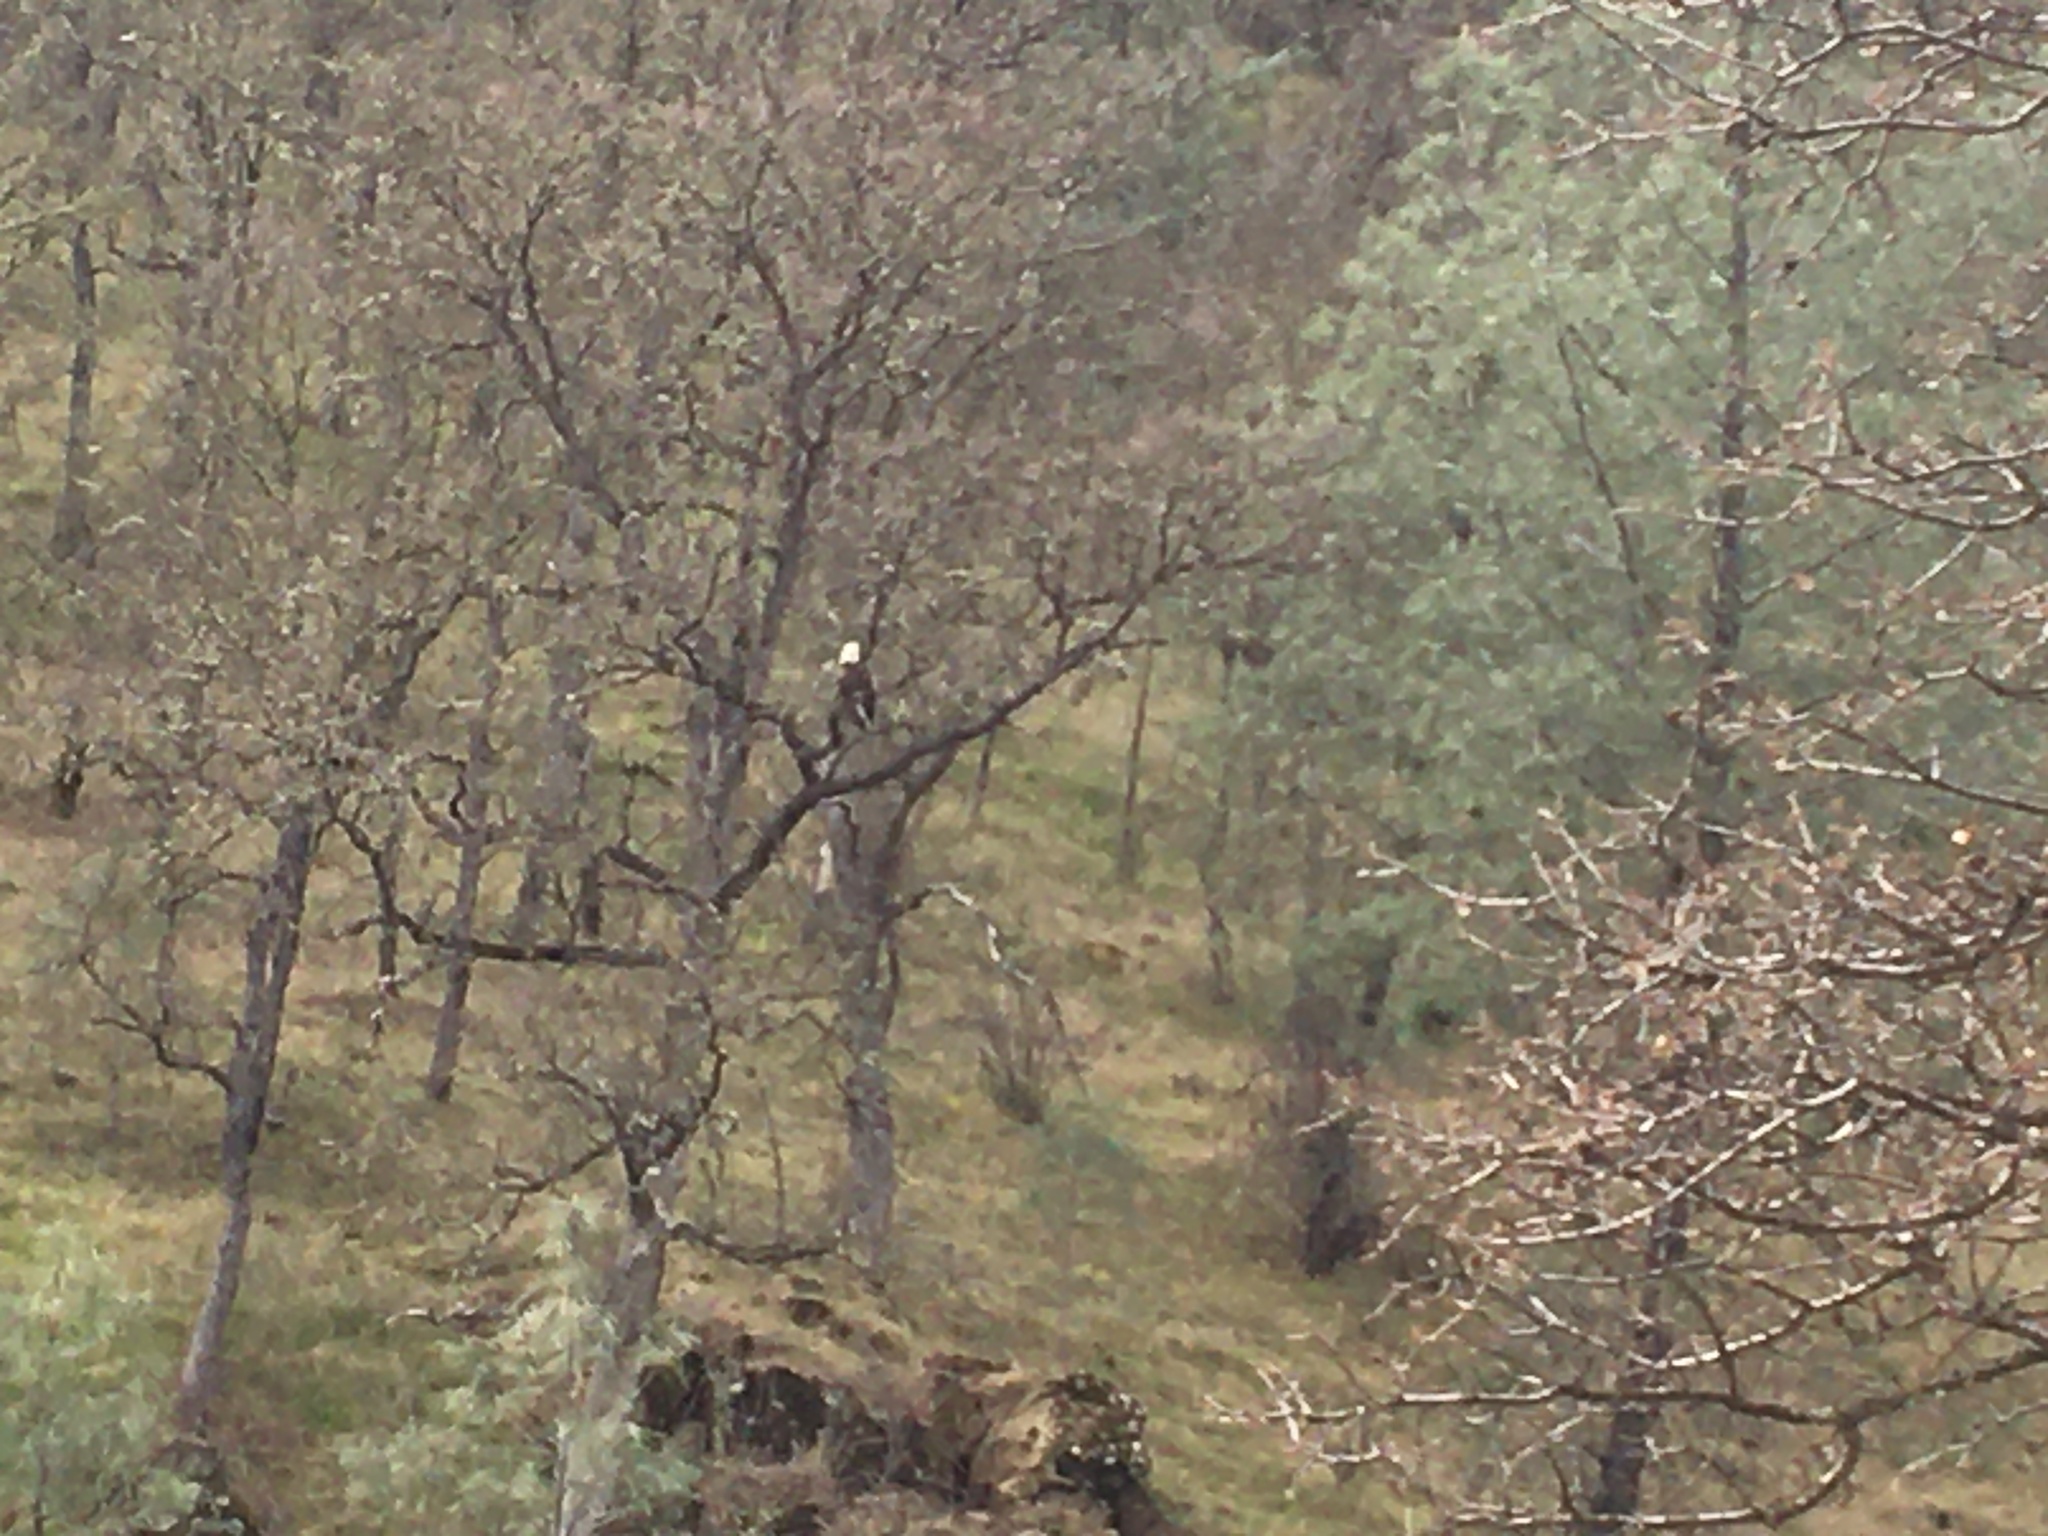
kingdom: Animalia
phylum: Chordata
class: Aves
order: Accipitriformes
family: Accipitridae
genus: Haliaeetus
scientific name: Haliaeetus leucocephalus
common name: Bald eagle
